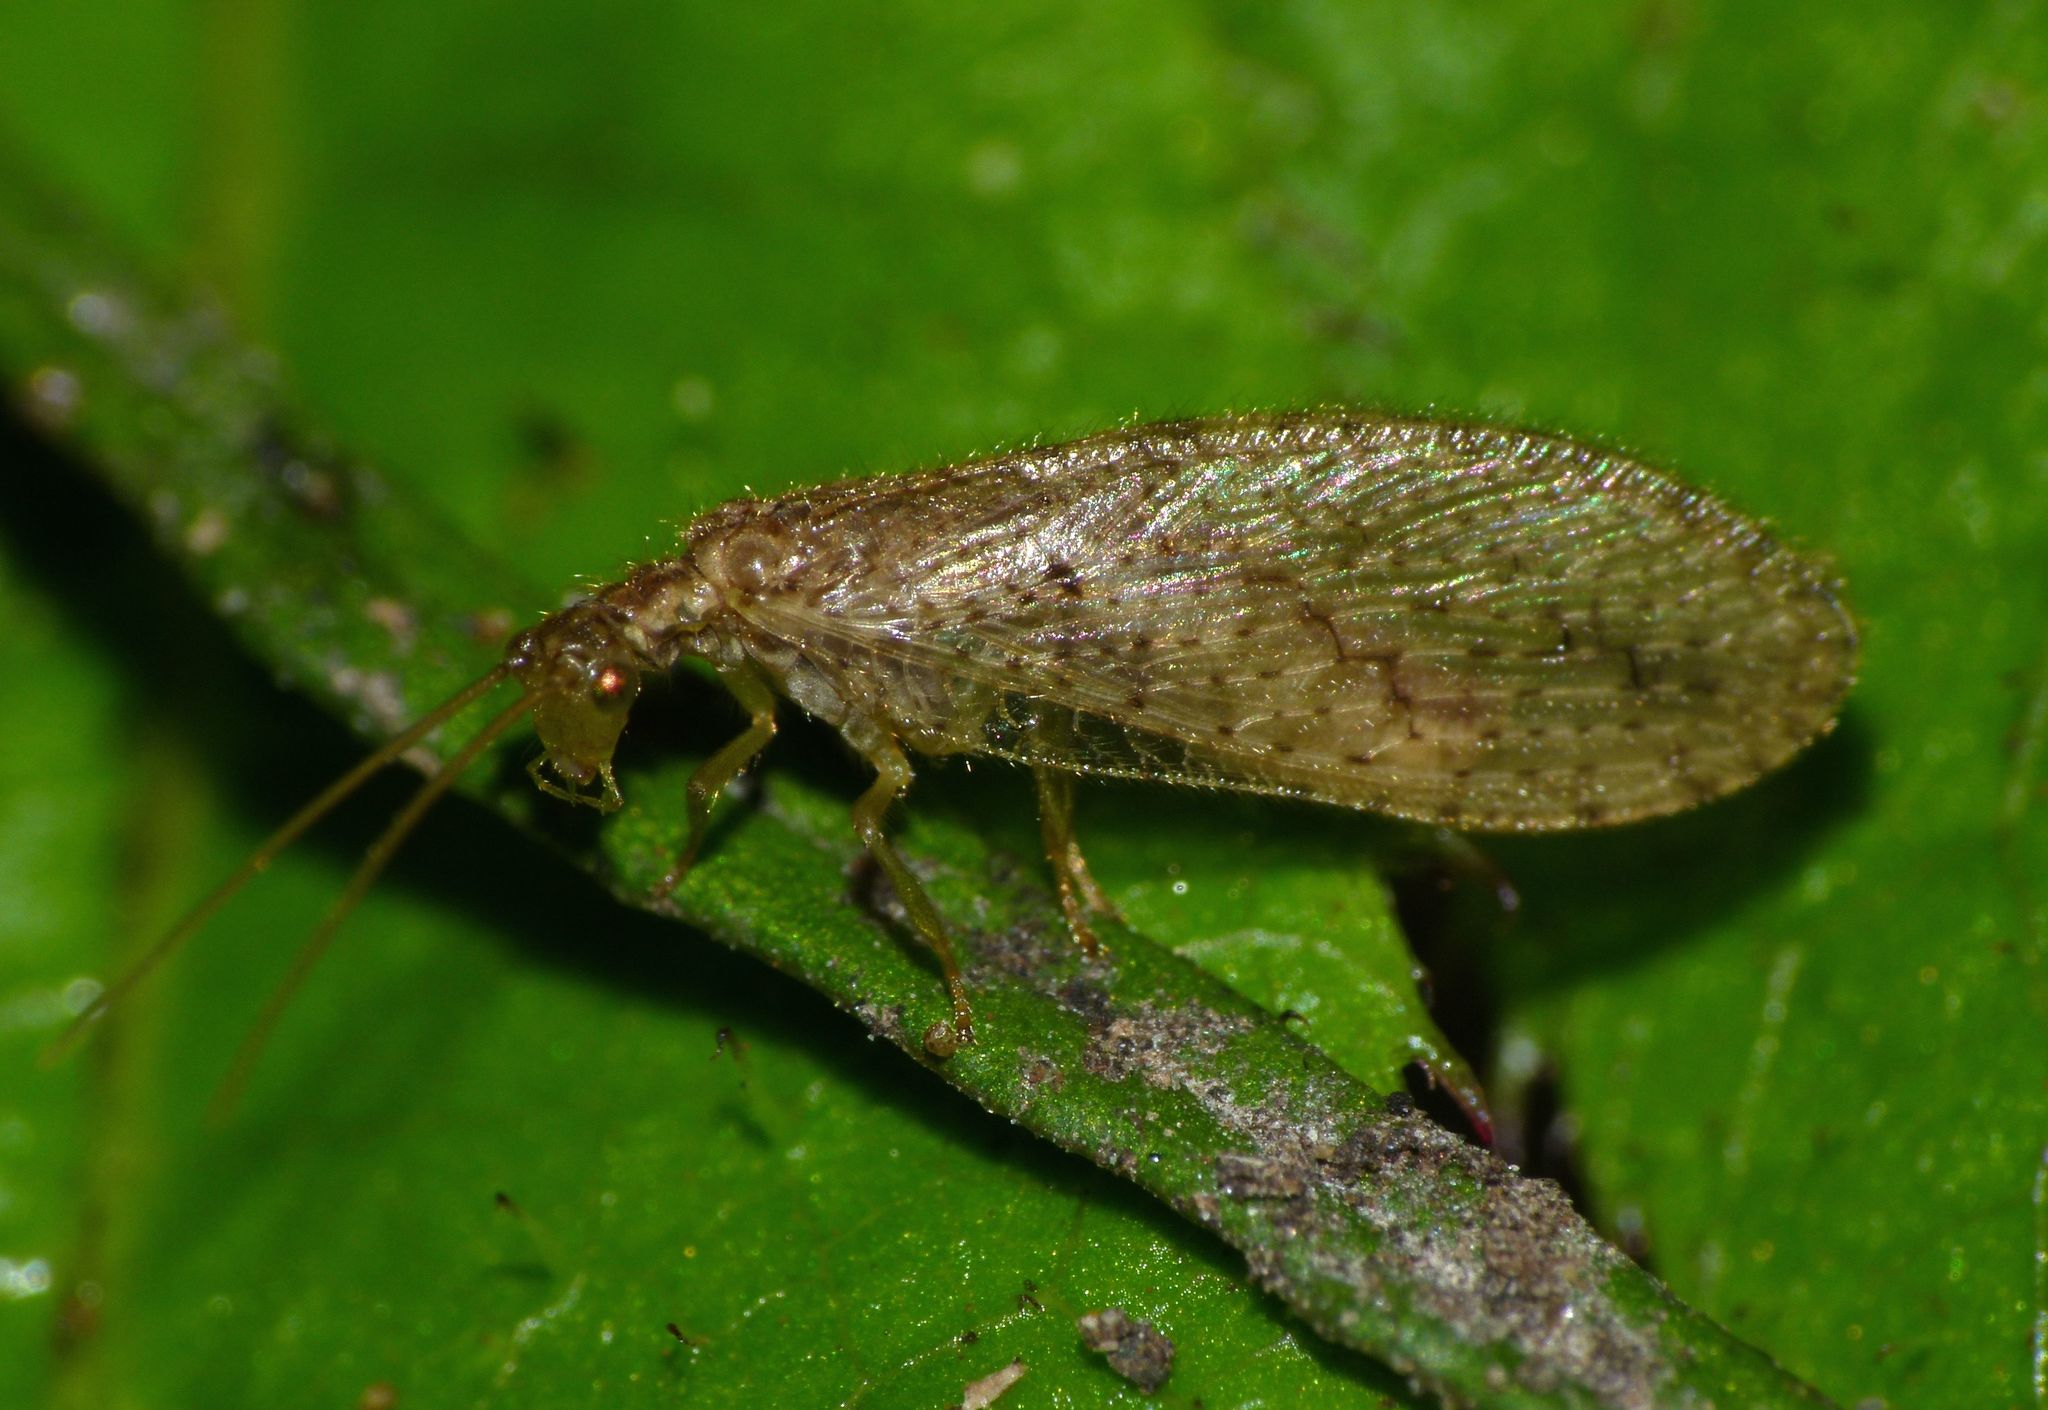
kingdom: Animalia
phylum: Arthropoda
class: Insecta
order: Neuroptera
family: Hemerobiidae
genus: Micromus
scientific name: Micromus tasmaniae
